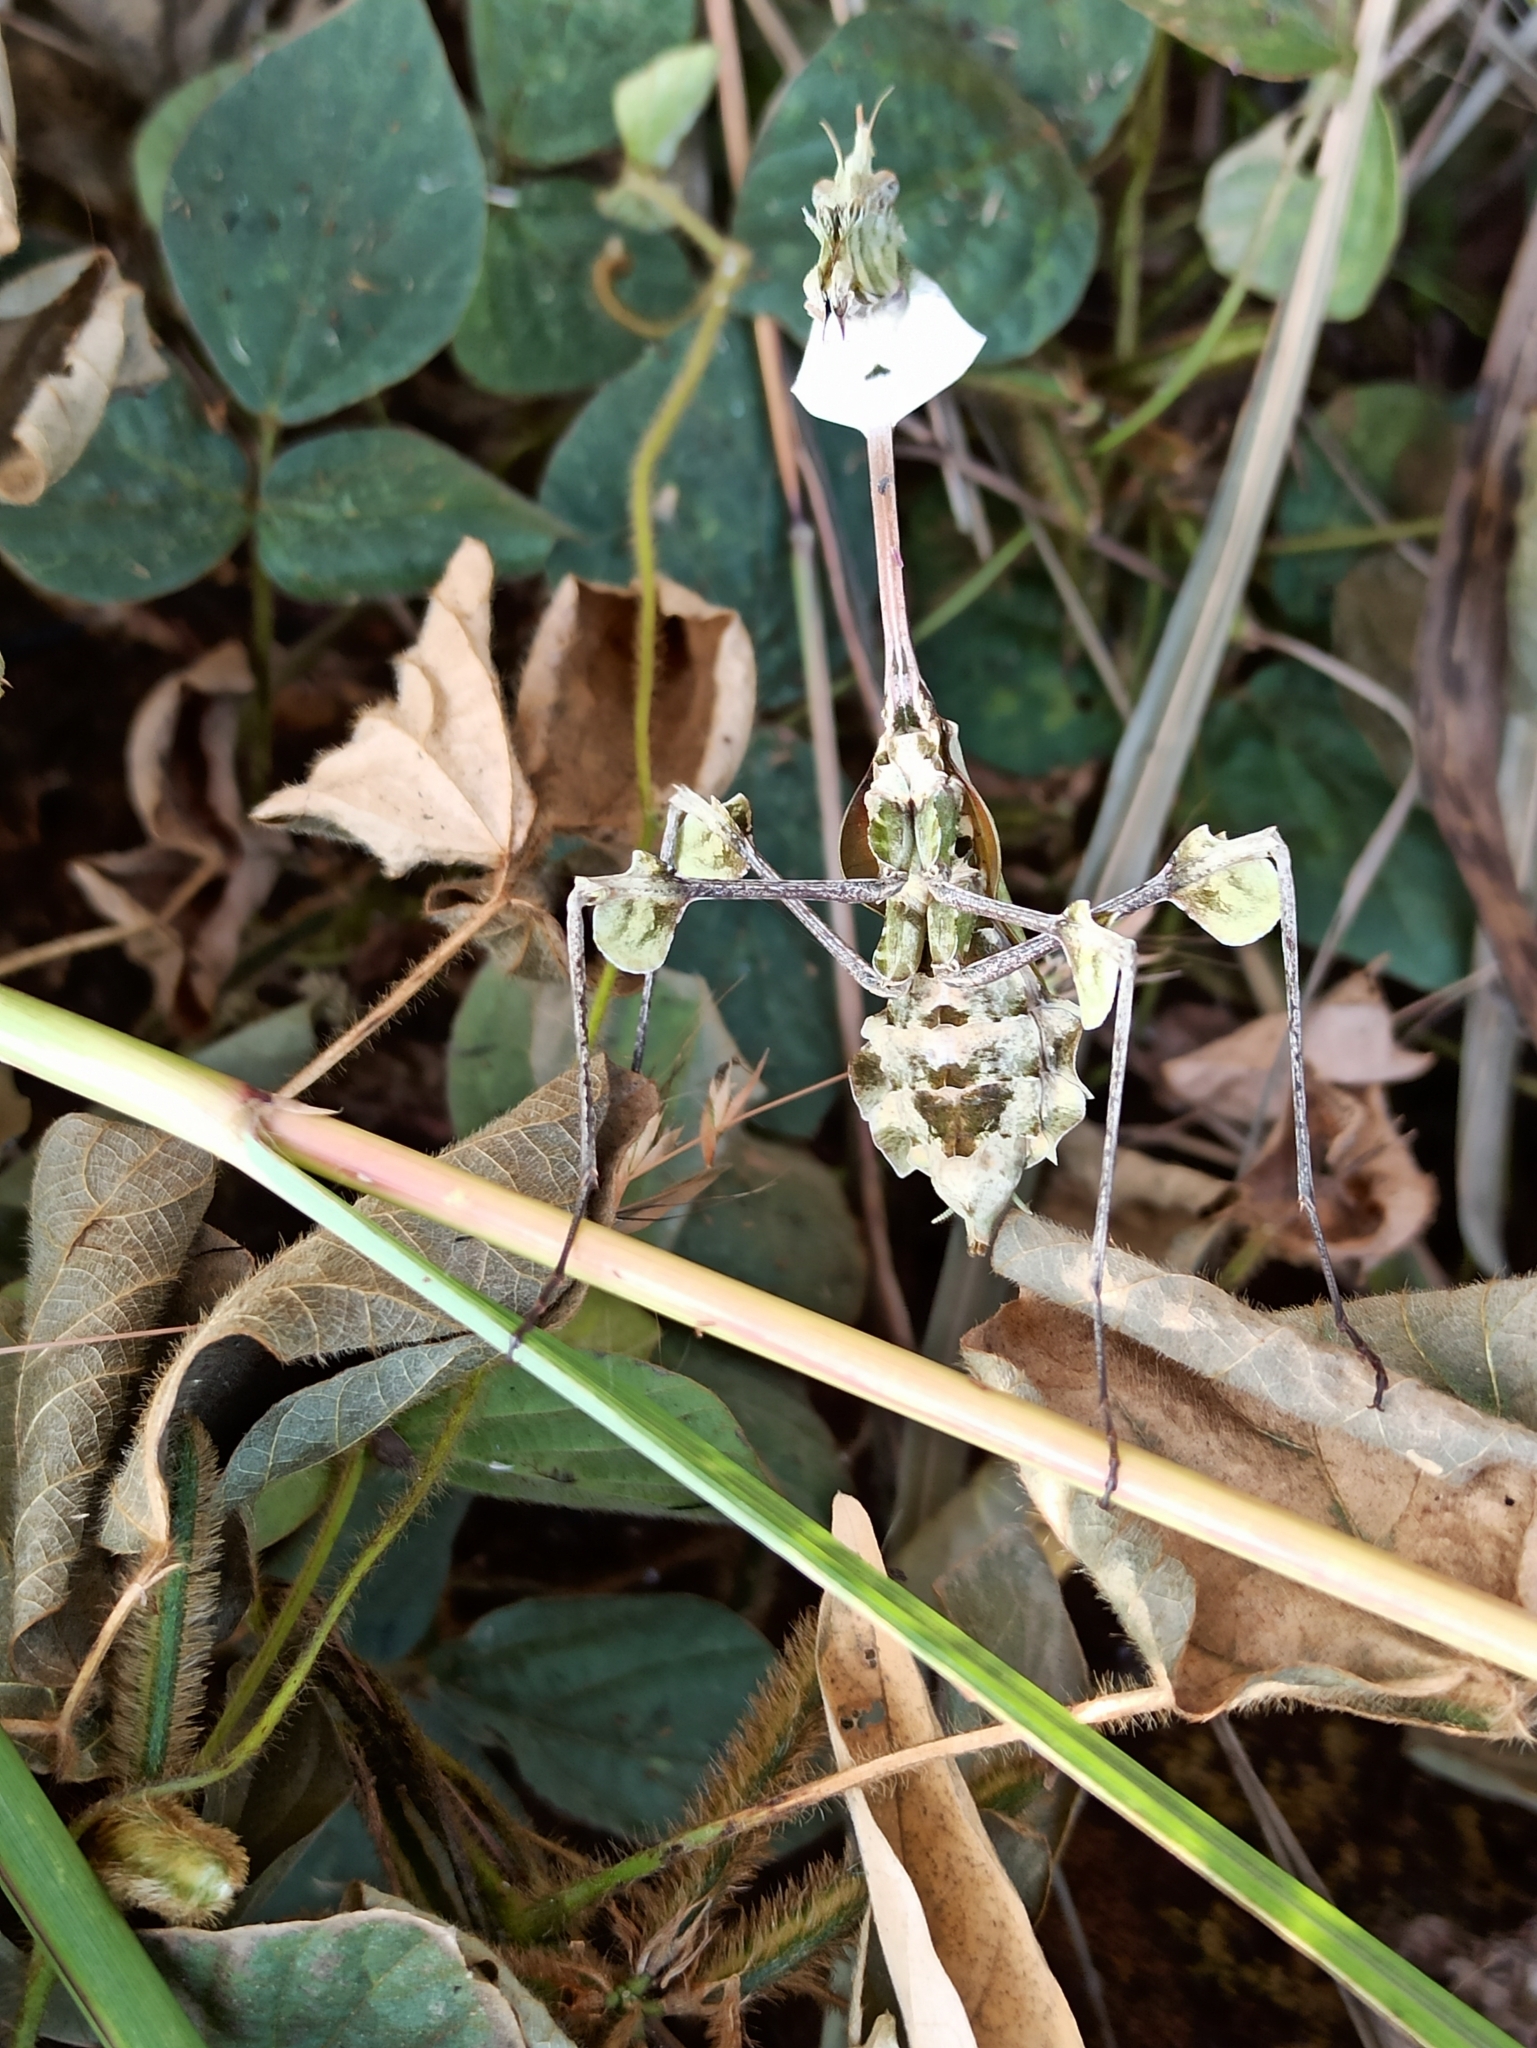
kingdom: Animalia
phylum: Arthropoda
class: Insecta
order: Mantodea
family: Empusidae
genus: Gongylus
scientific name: Gongylus gongylodes
